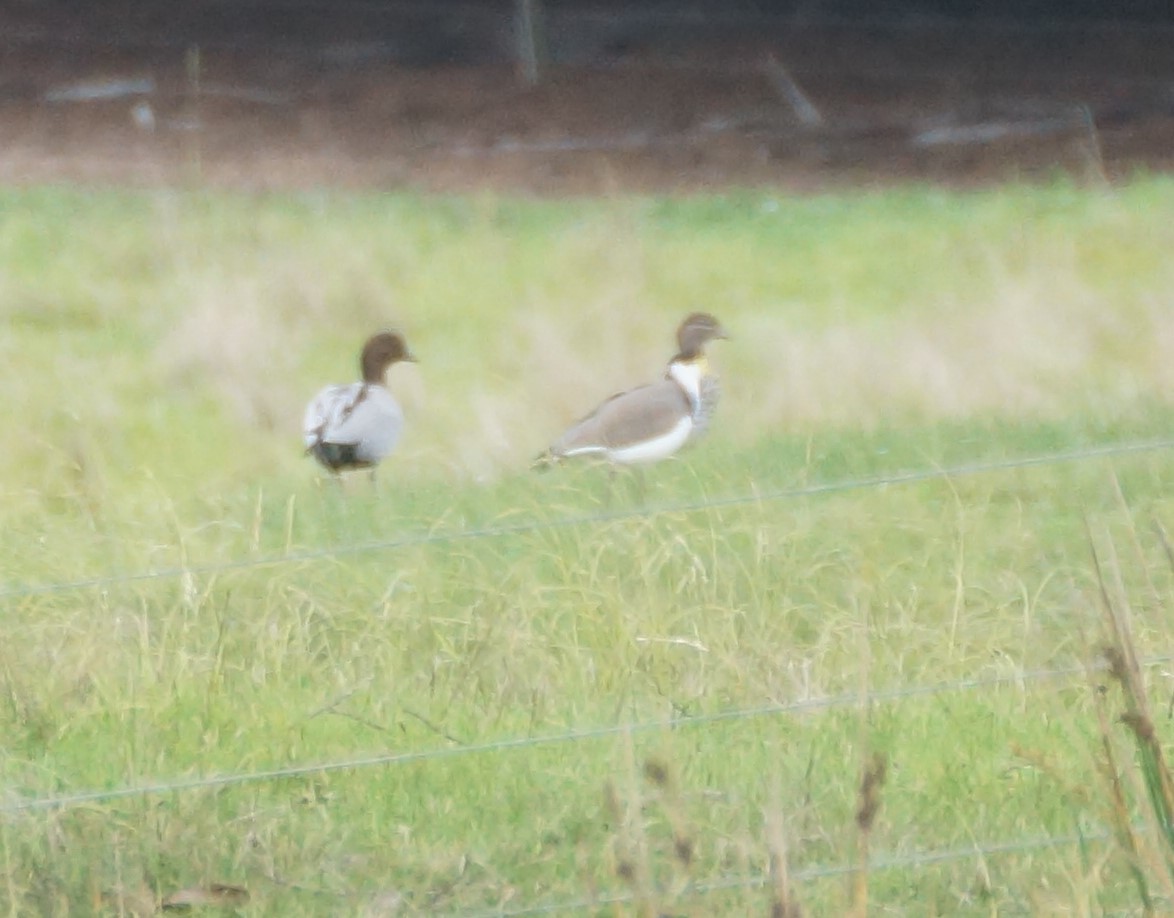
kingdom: Animalia
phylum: Chordata
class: Aves
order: Anseriformes
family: Anatidae
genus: Chenonetta
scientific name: Chenonetta jubata
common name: Maned duck
